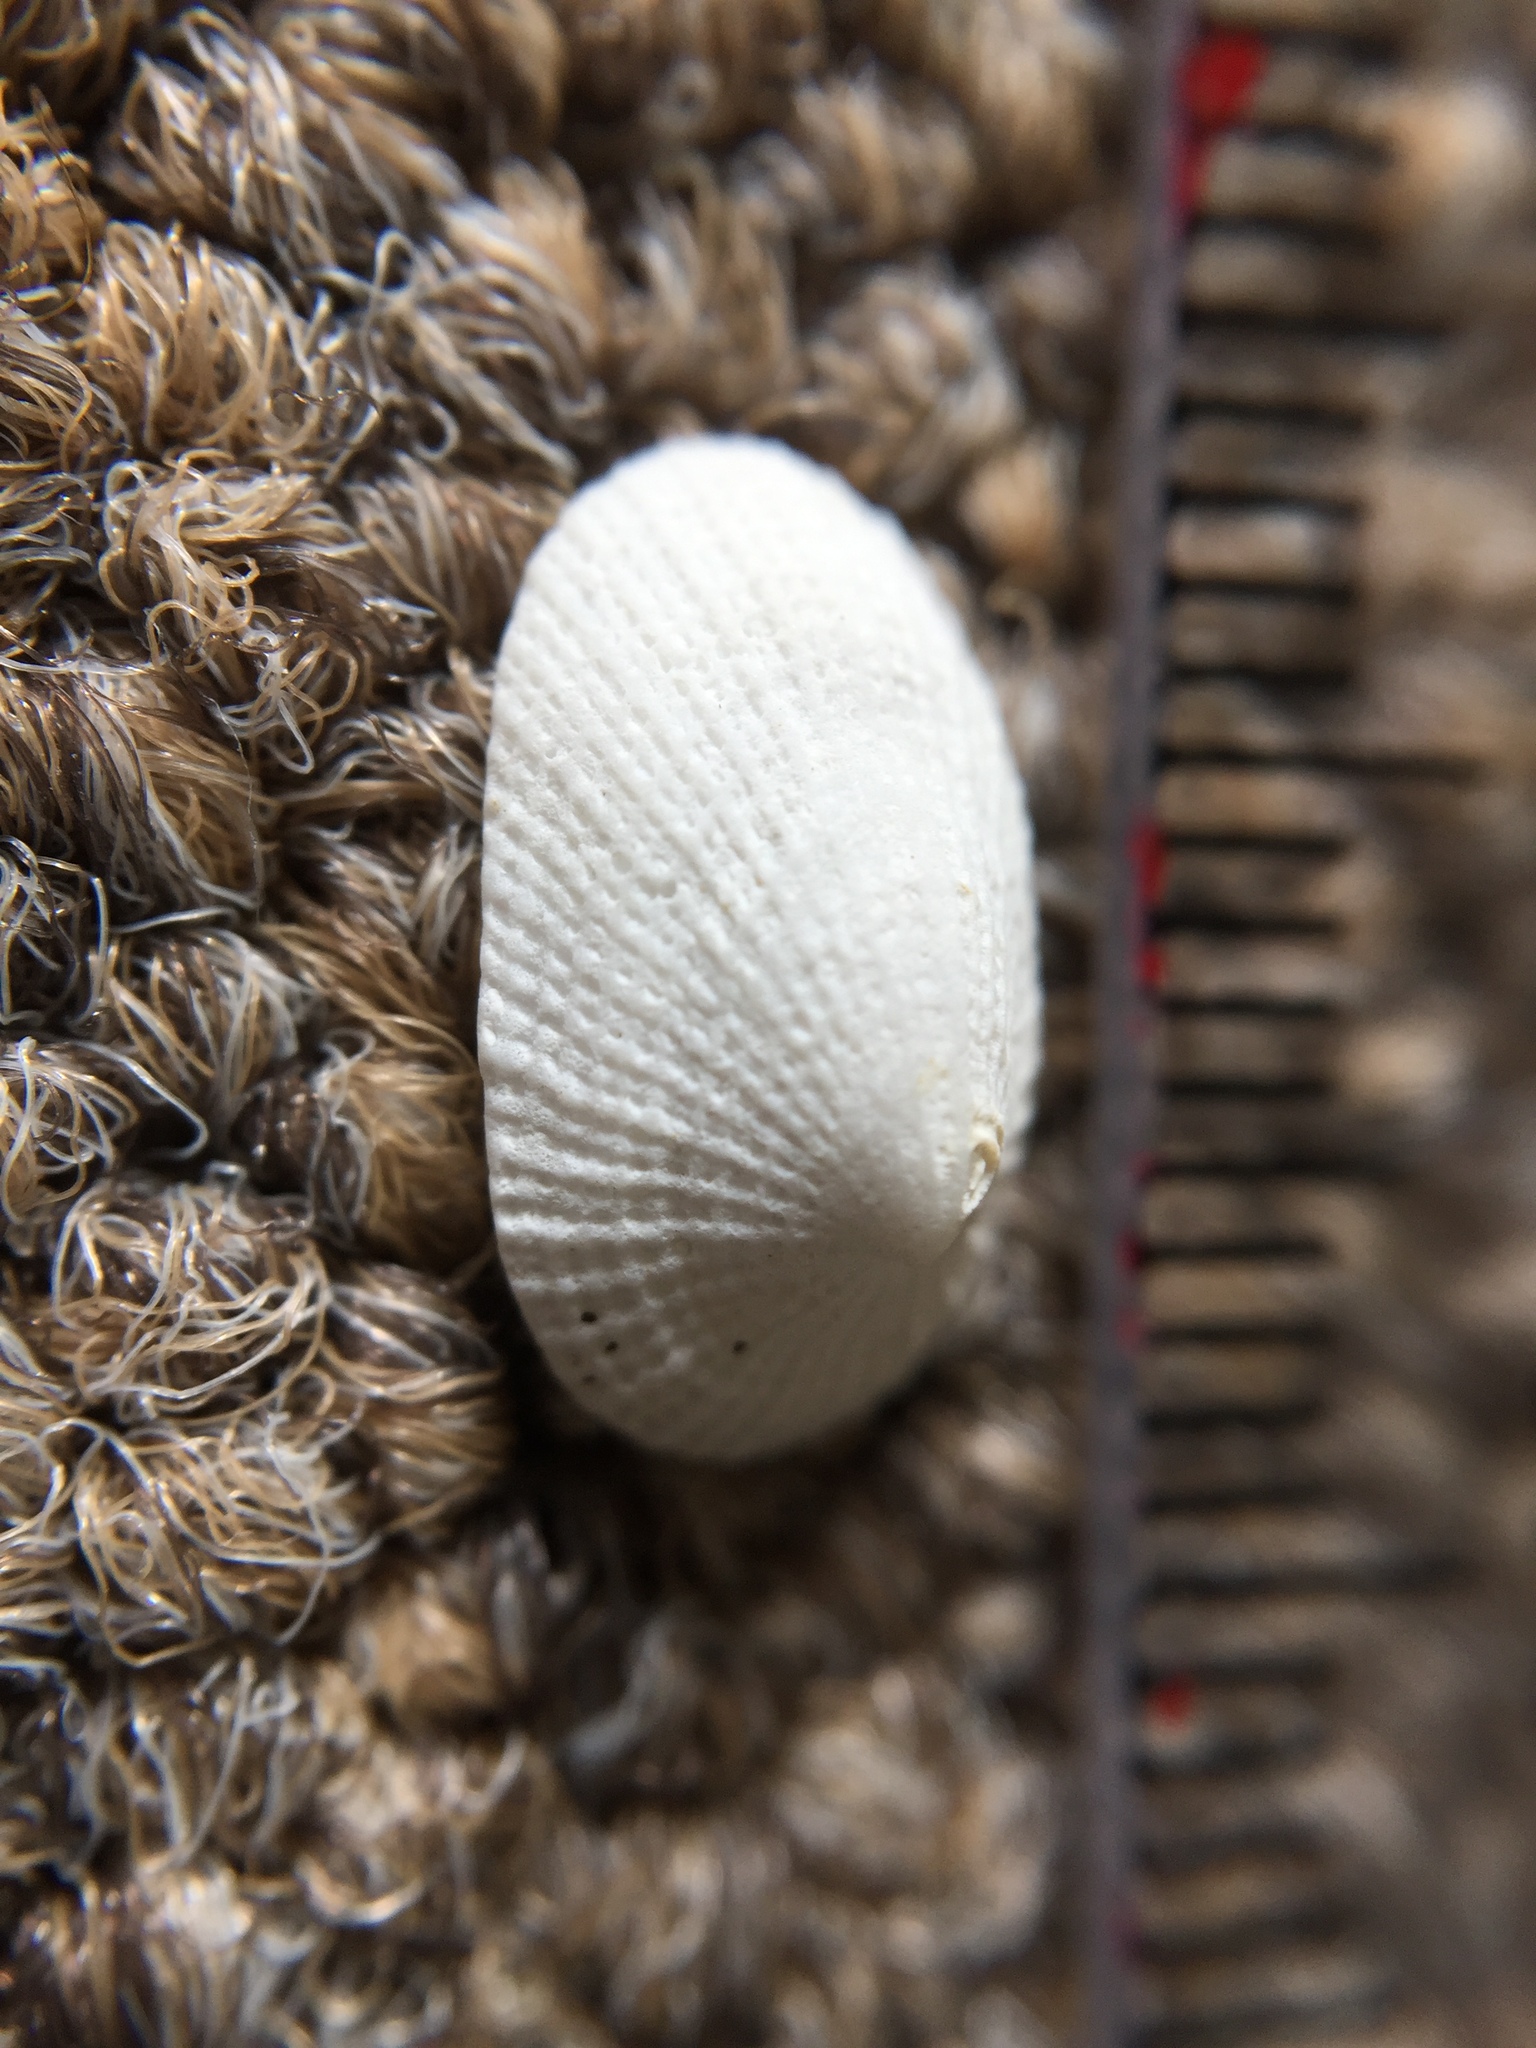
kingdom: Animalia
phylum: Mollusca
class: Gastropoda
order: Lepetellida
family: Fissurellidae
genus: Tugali
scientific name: Tugali suteri
